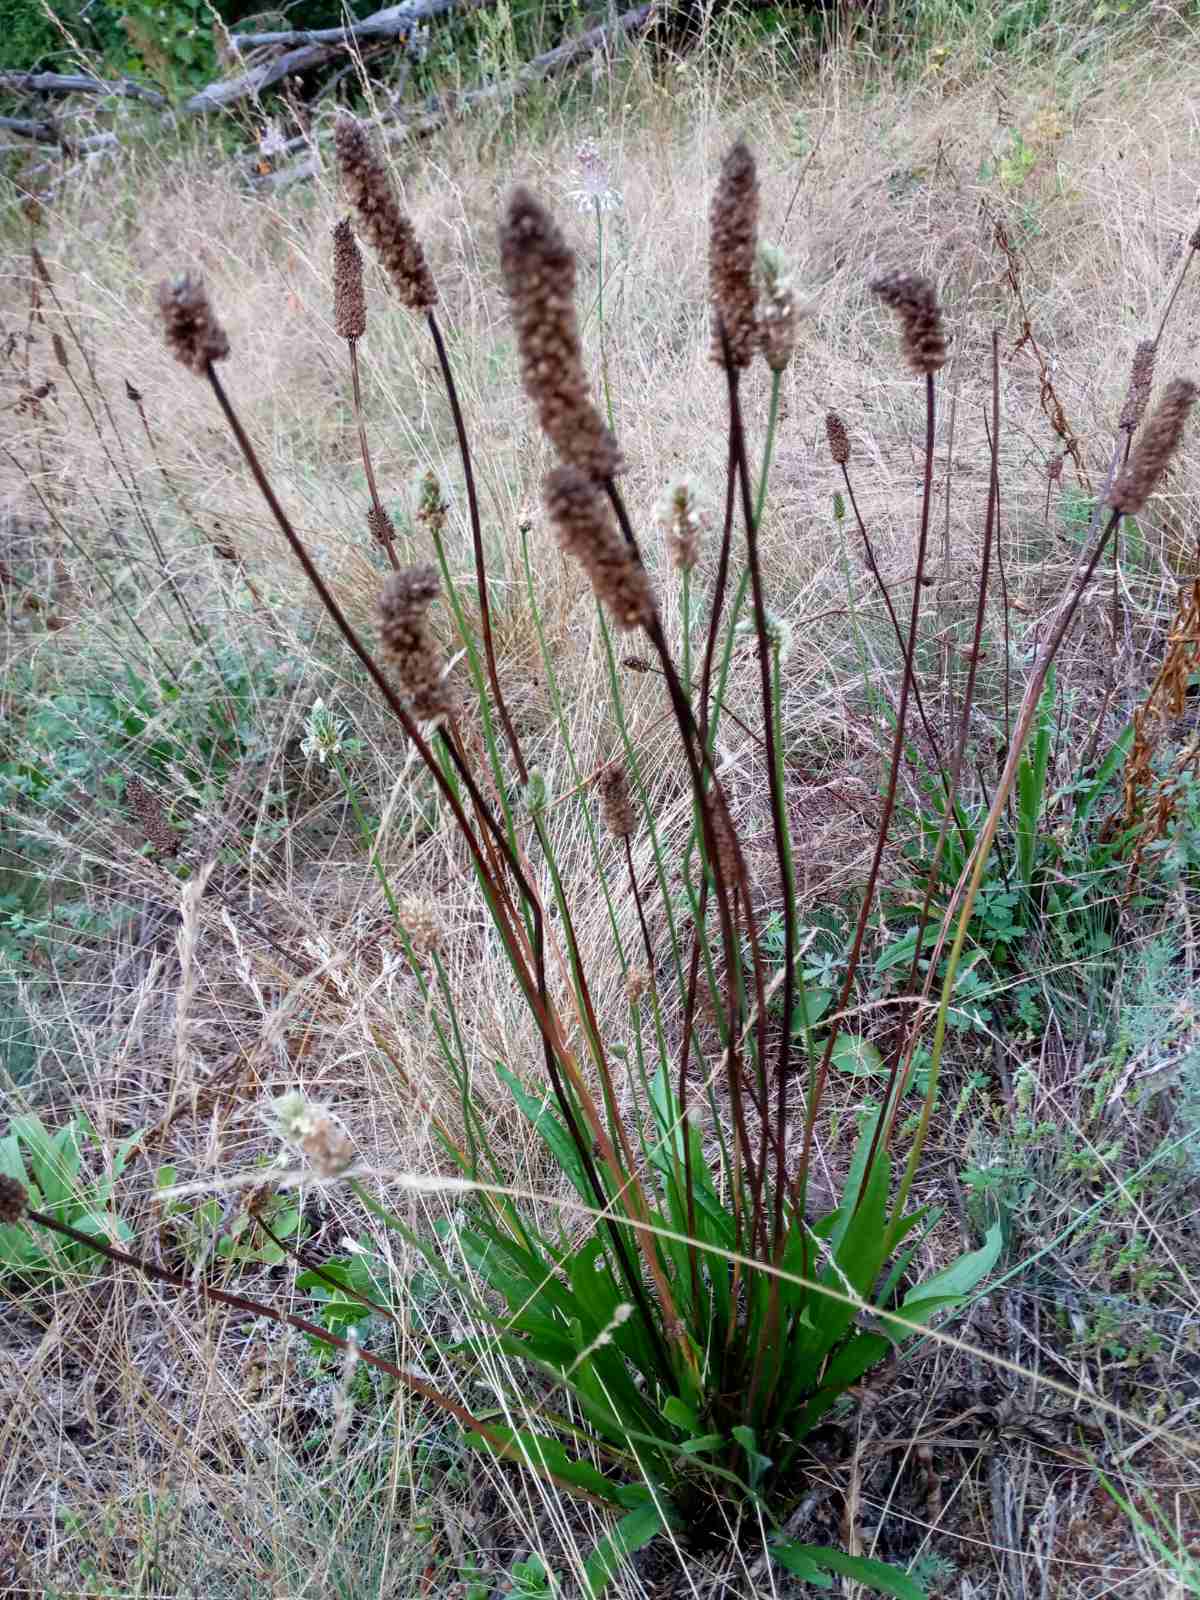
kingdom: Plantae
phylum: Tracheophyta
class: Magnoliopsida
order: Lamiales
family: Plantaginaceae
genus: Plantago
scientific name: Plantago lanceolata
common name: Ribwort plantain
